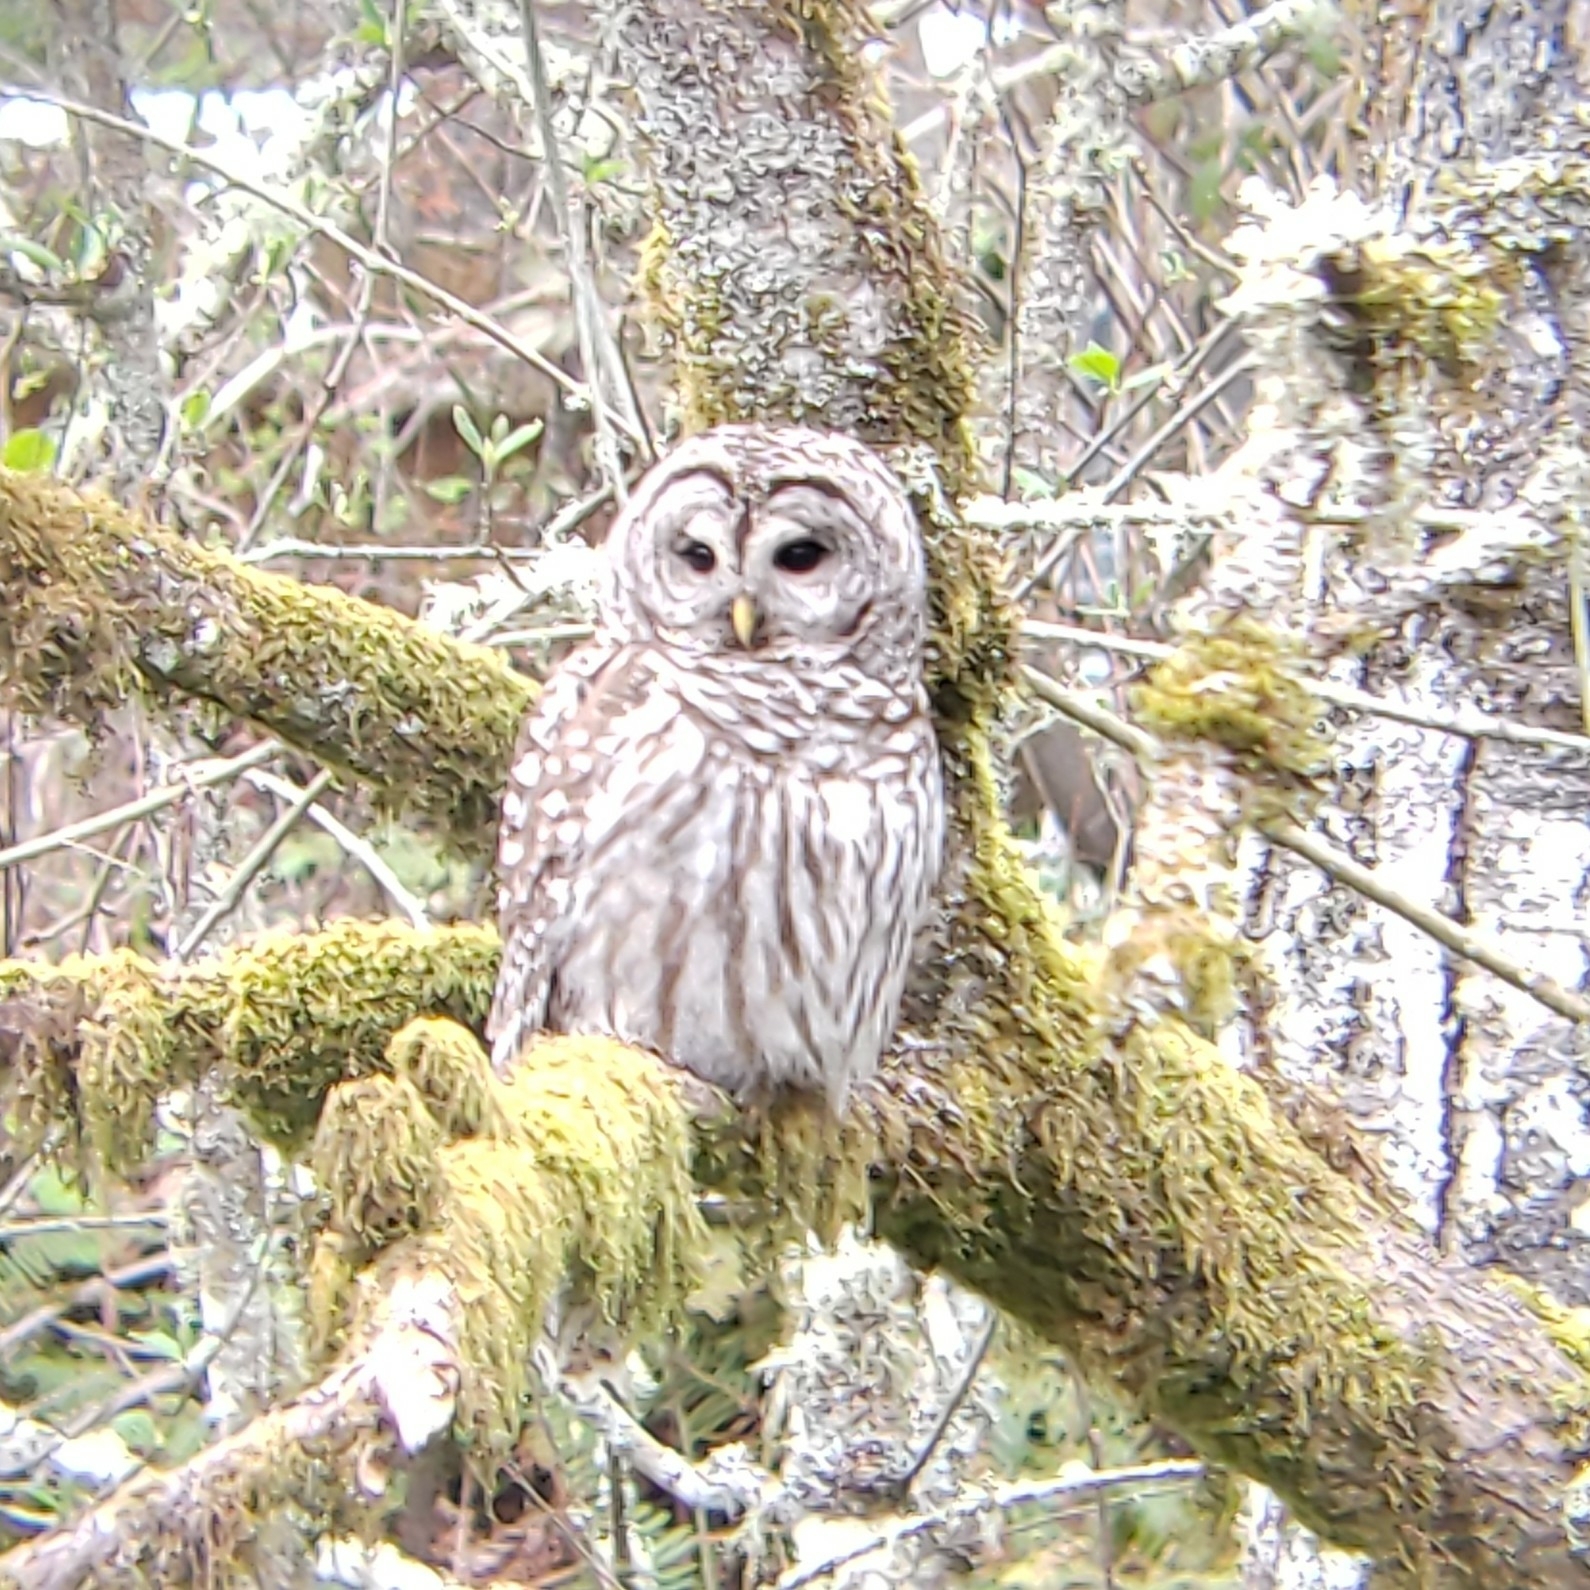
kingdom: Animalia
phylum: Chordata
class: Aves
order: Strigiformes
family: Strigidae
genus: Strix
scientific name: Strix varia
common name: Barred owl
